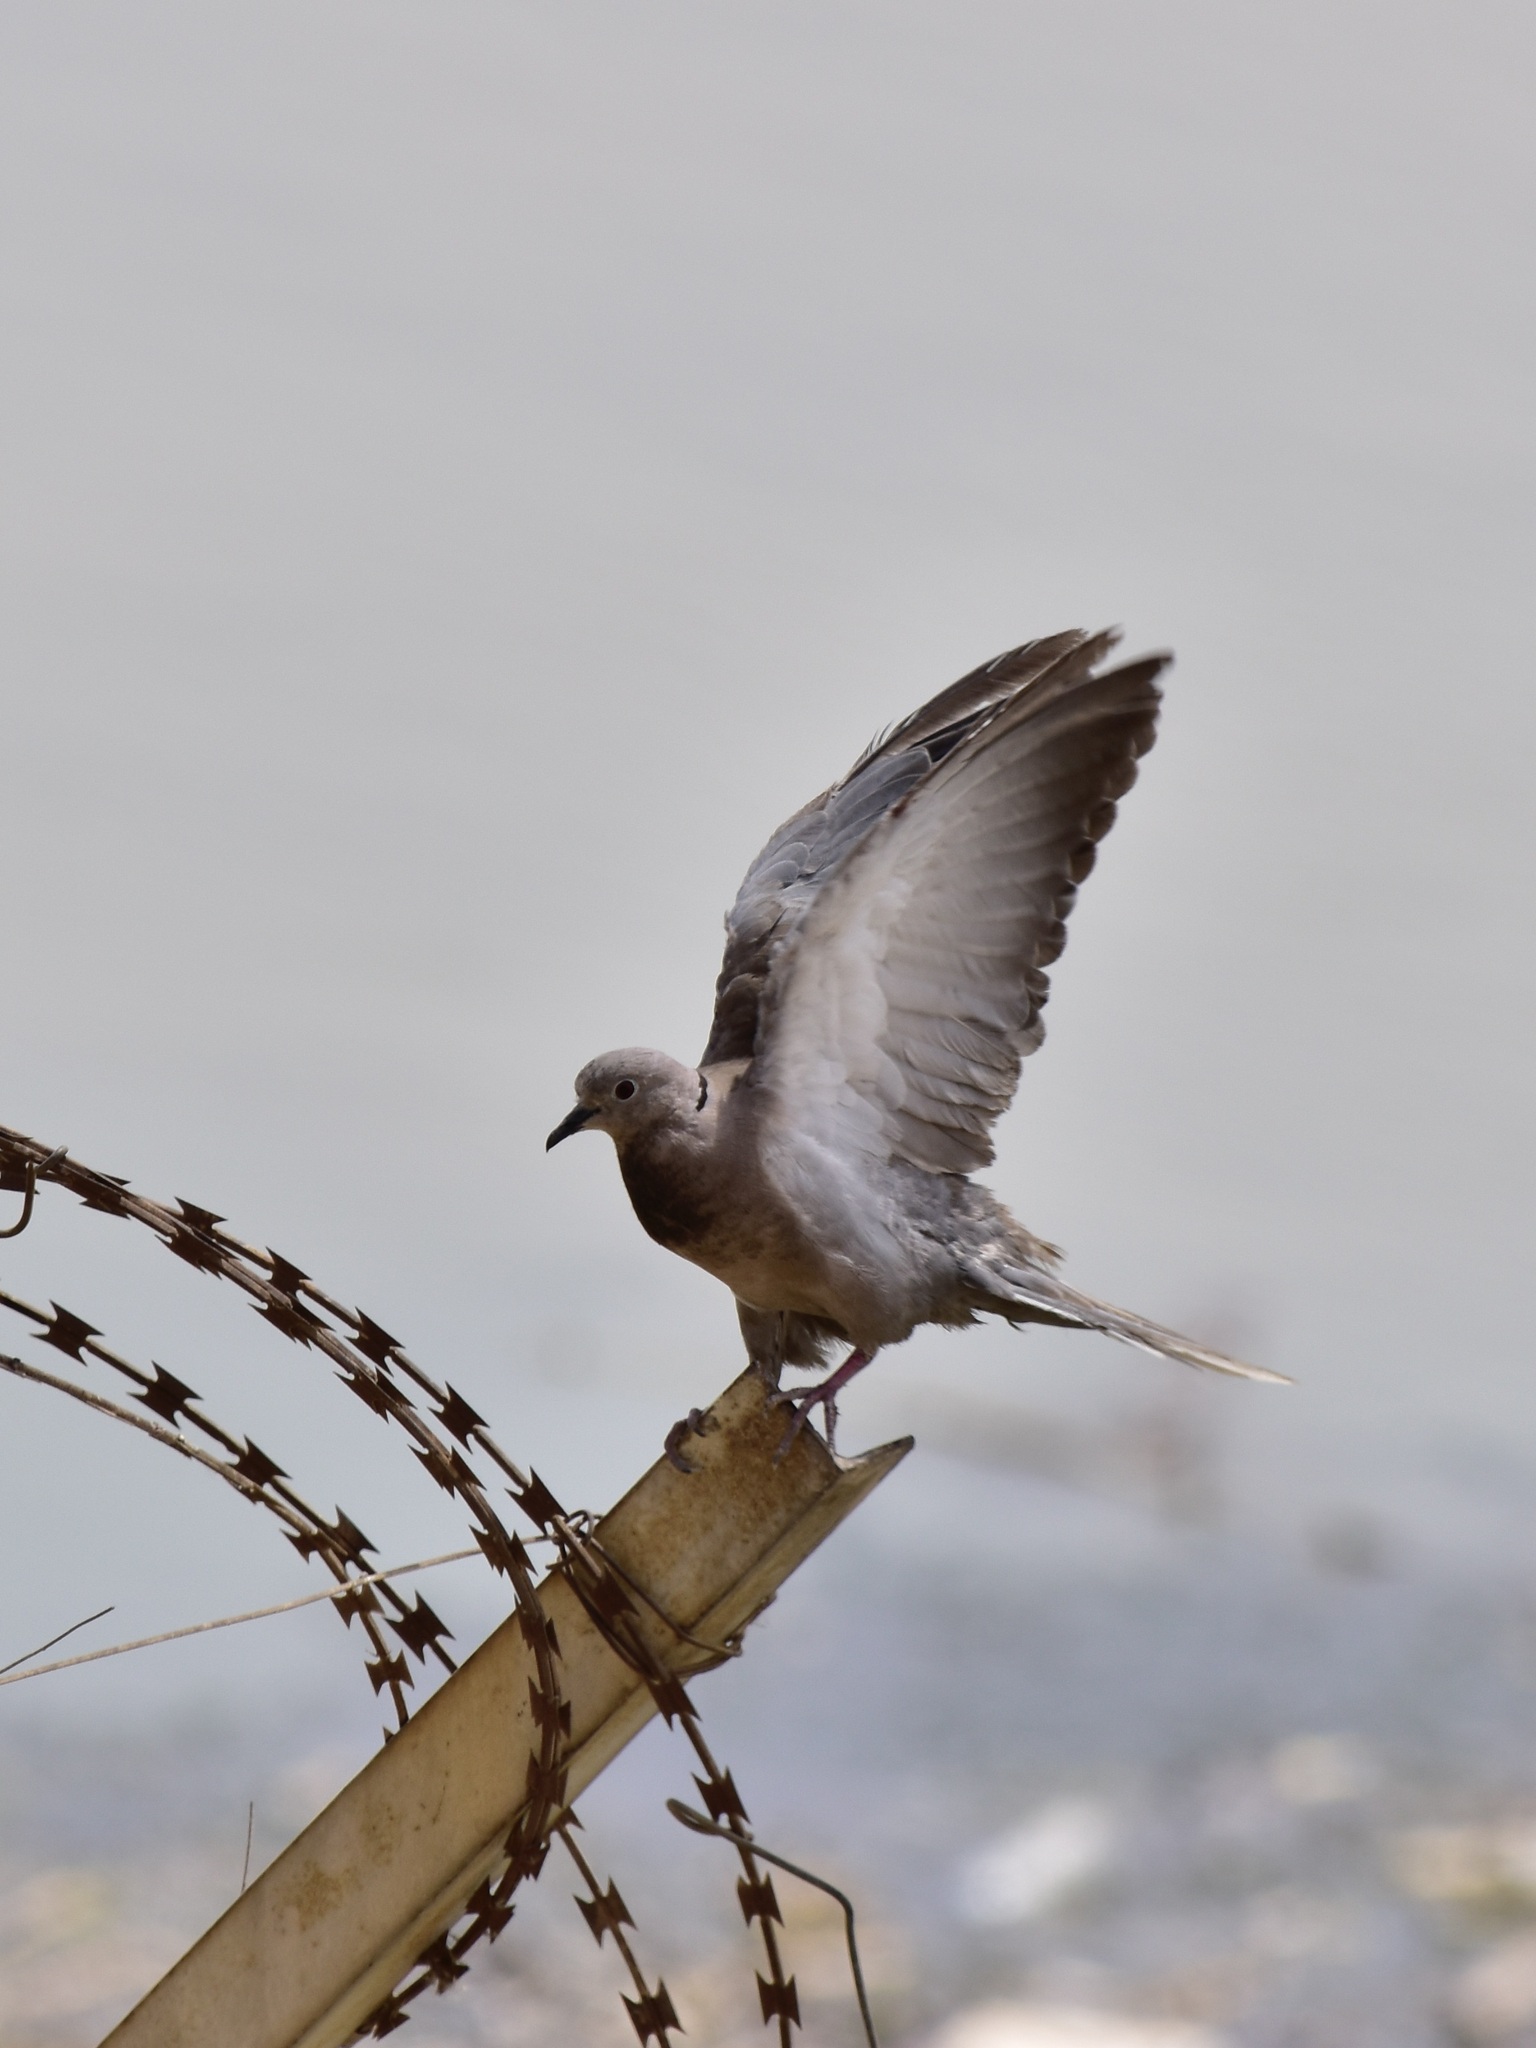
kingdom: Animalia
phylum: Chordata
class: Aves
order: Columbiformes
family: Columbidae
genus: Streptopelia
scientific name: Streptopelia decaocto
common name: Eurasian collared dove
